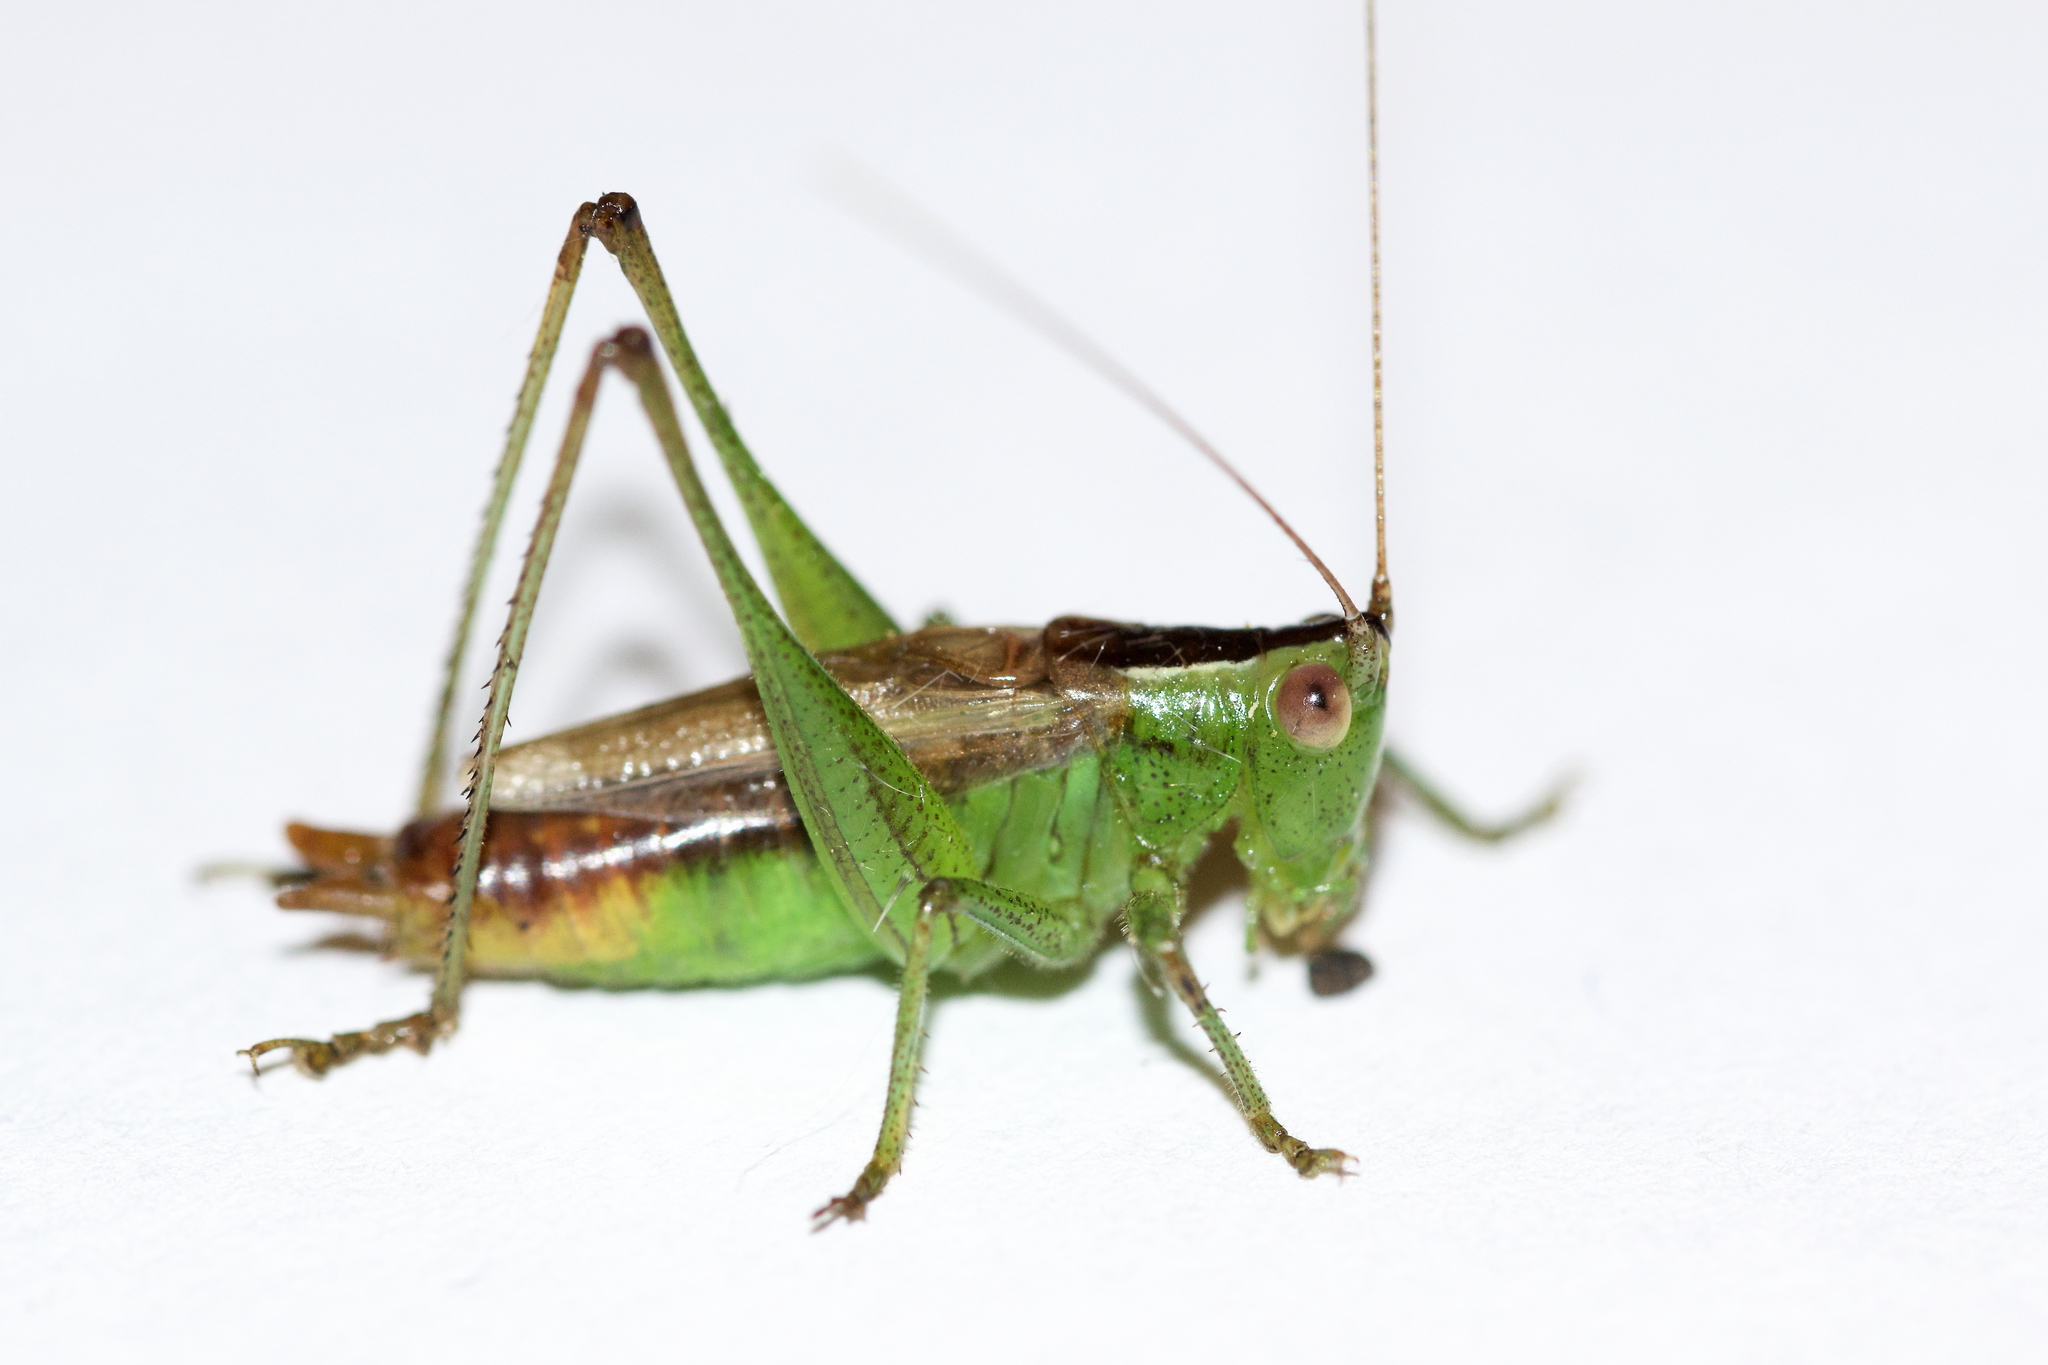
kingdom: Animalia
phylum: Arthropoda
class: Insecta
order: Orthoptera
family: Tettigoniidae
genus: Conocephalus
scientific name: Conocephalus brevipennis
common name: Short-winged meadow katydid
